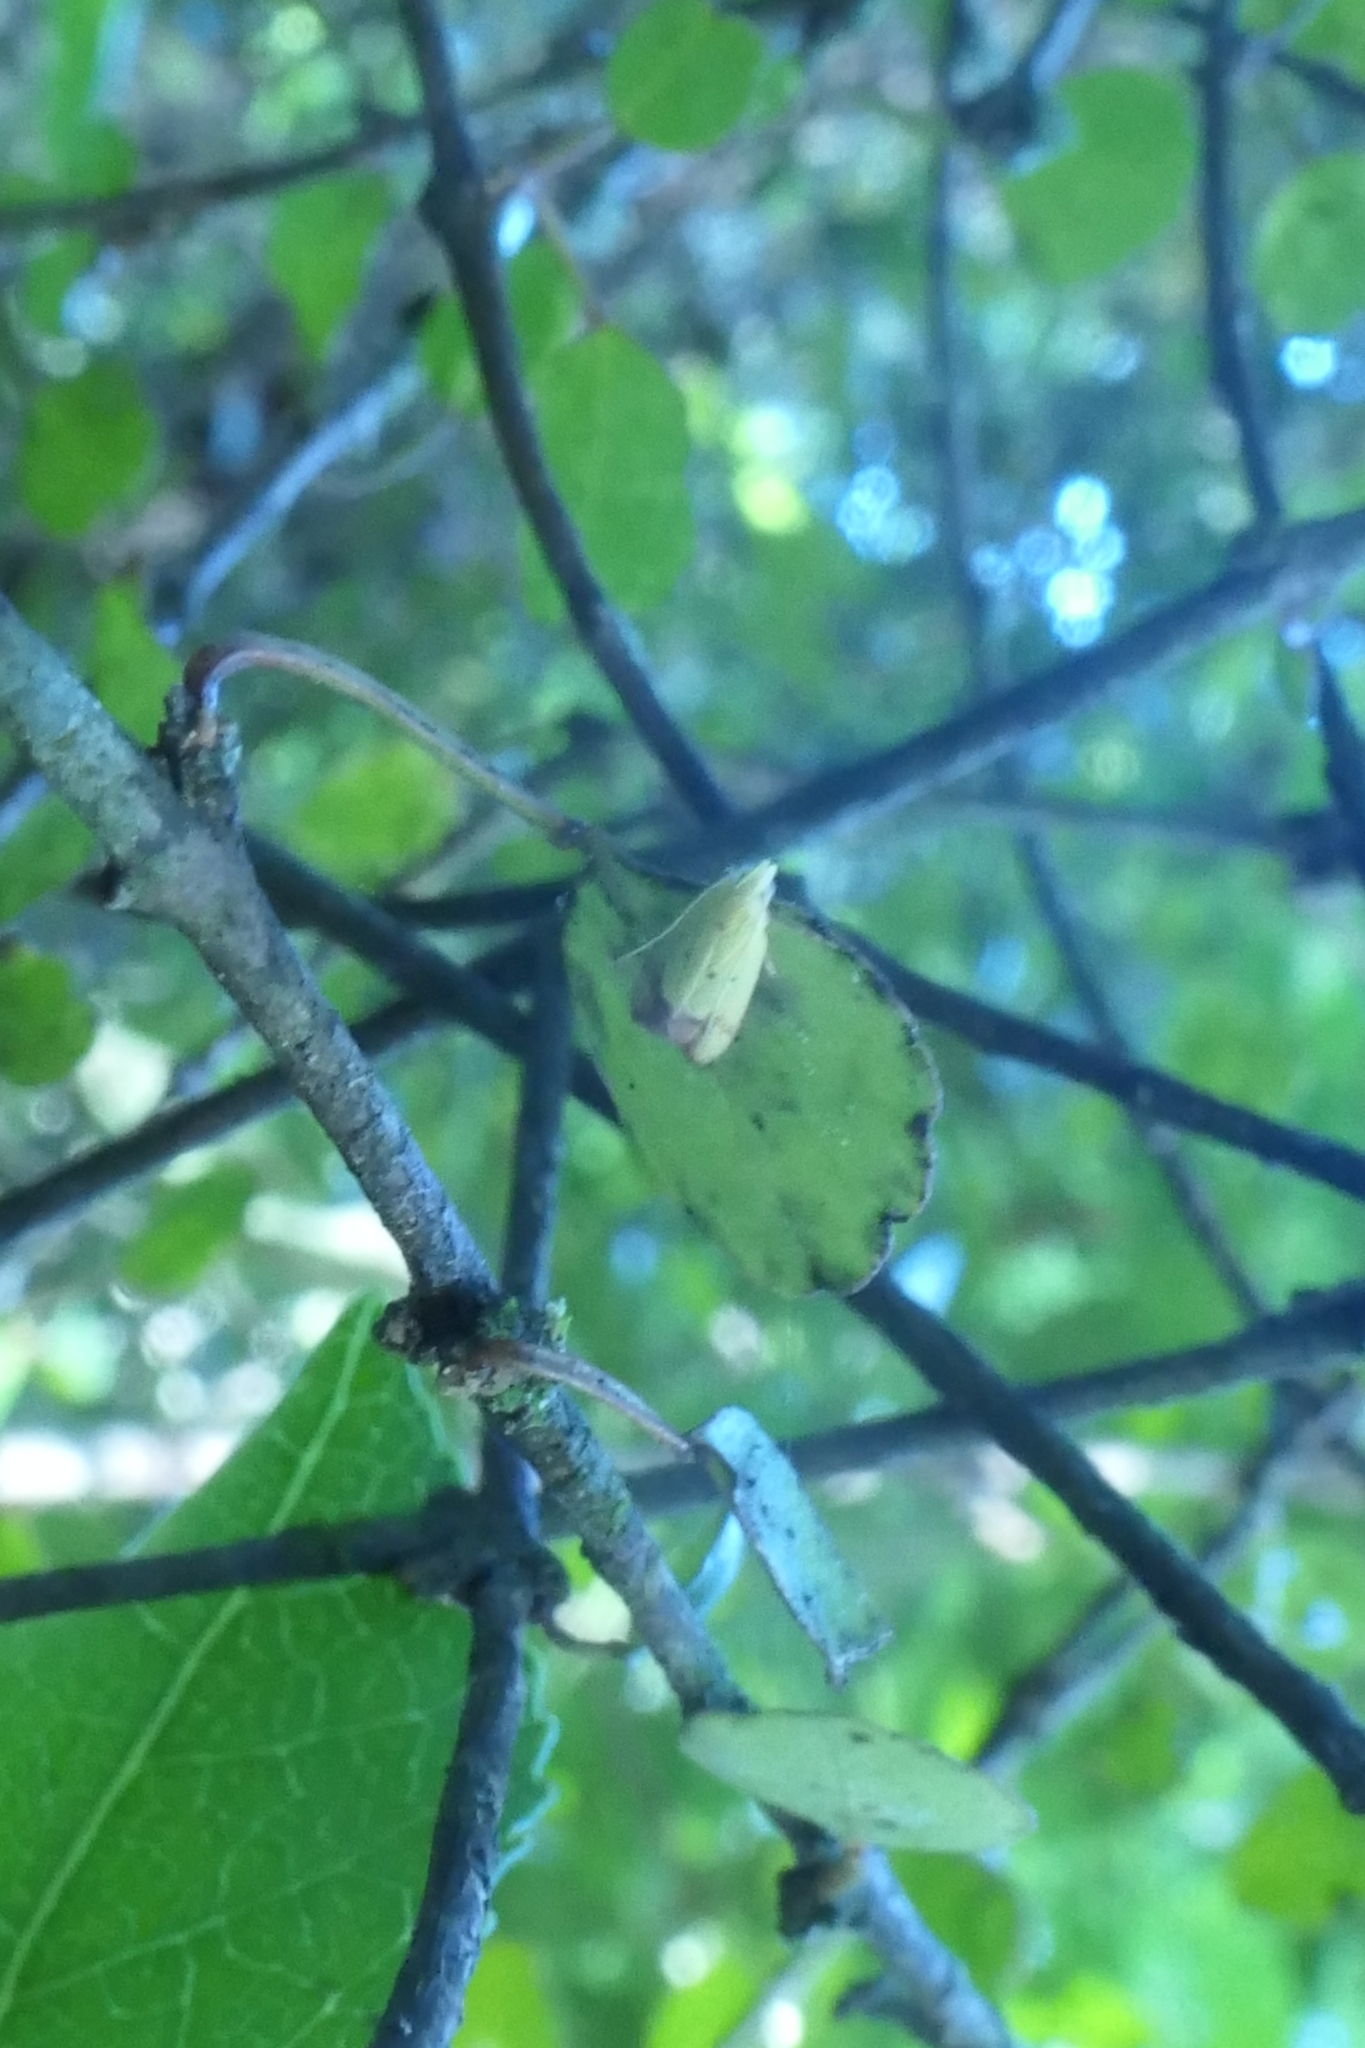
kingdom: Animalia
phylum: Arthropoda
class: Insecta
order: Lepidoptera
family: Oecophoridae
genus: Gymnobathra
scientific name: Gymnobathra flavidella
